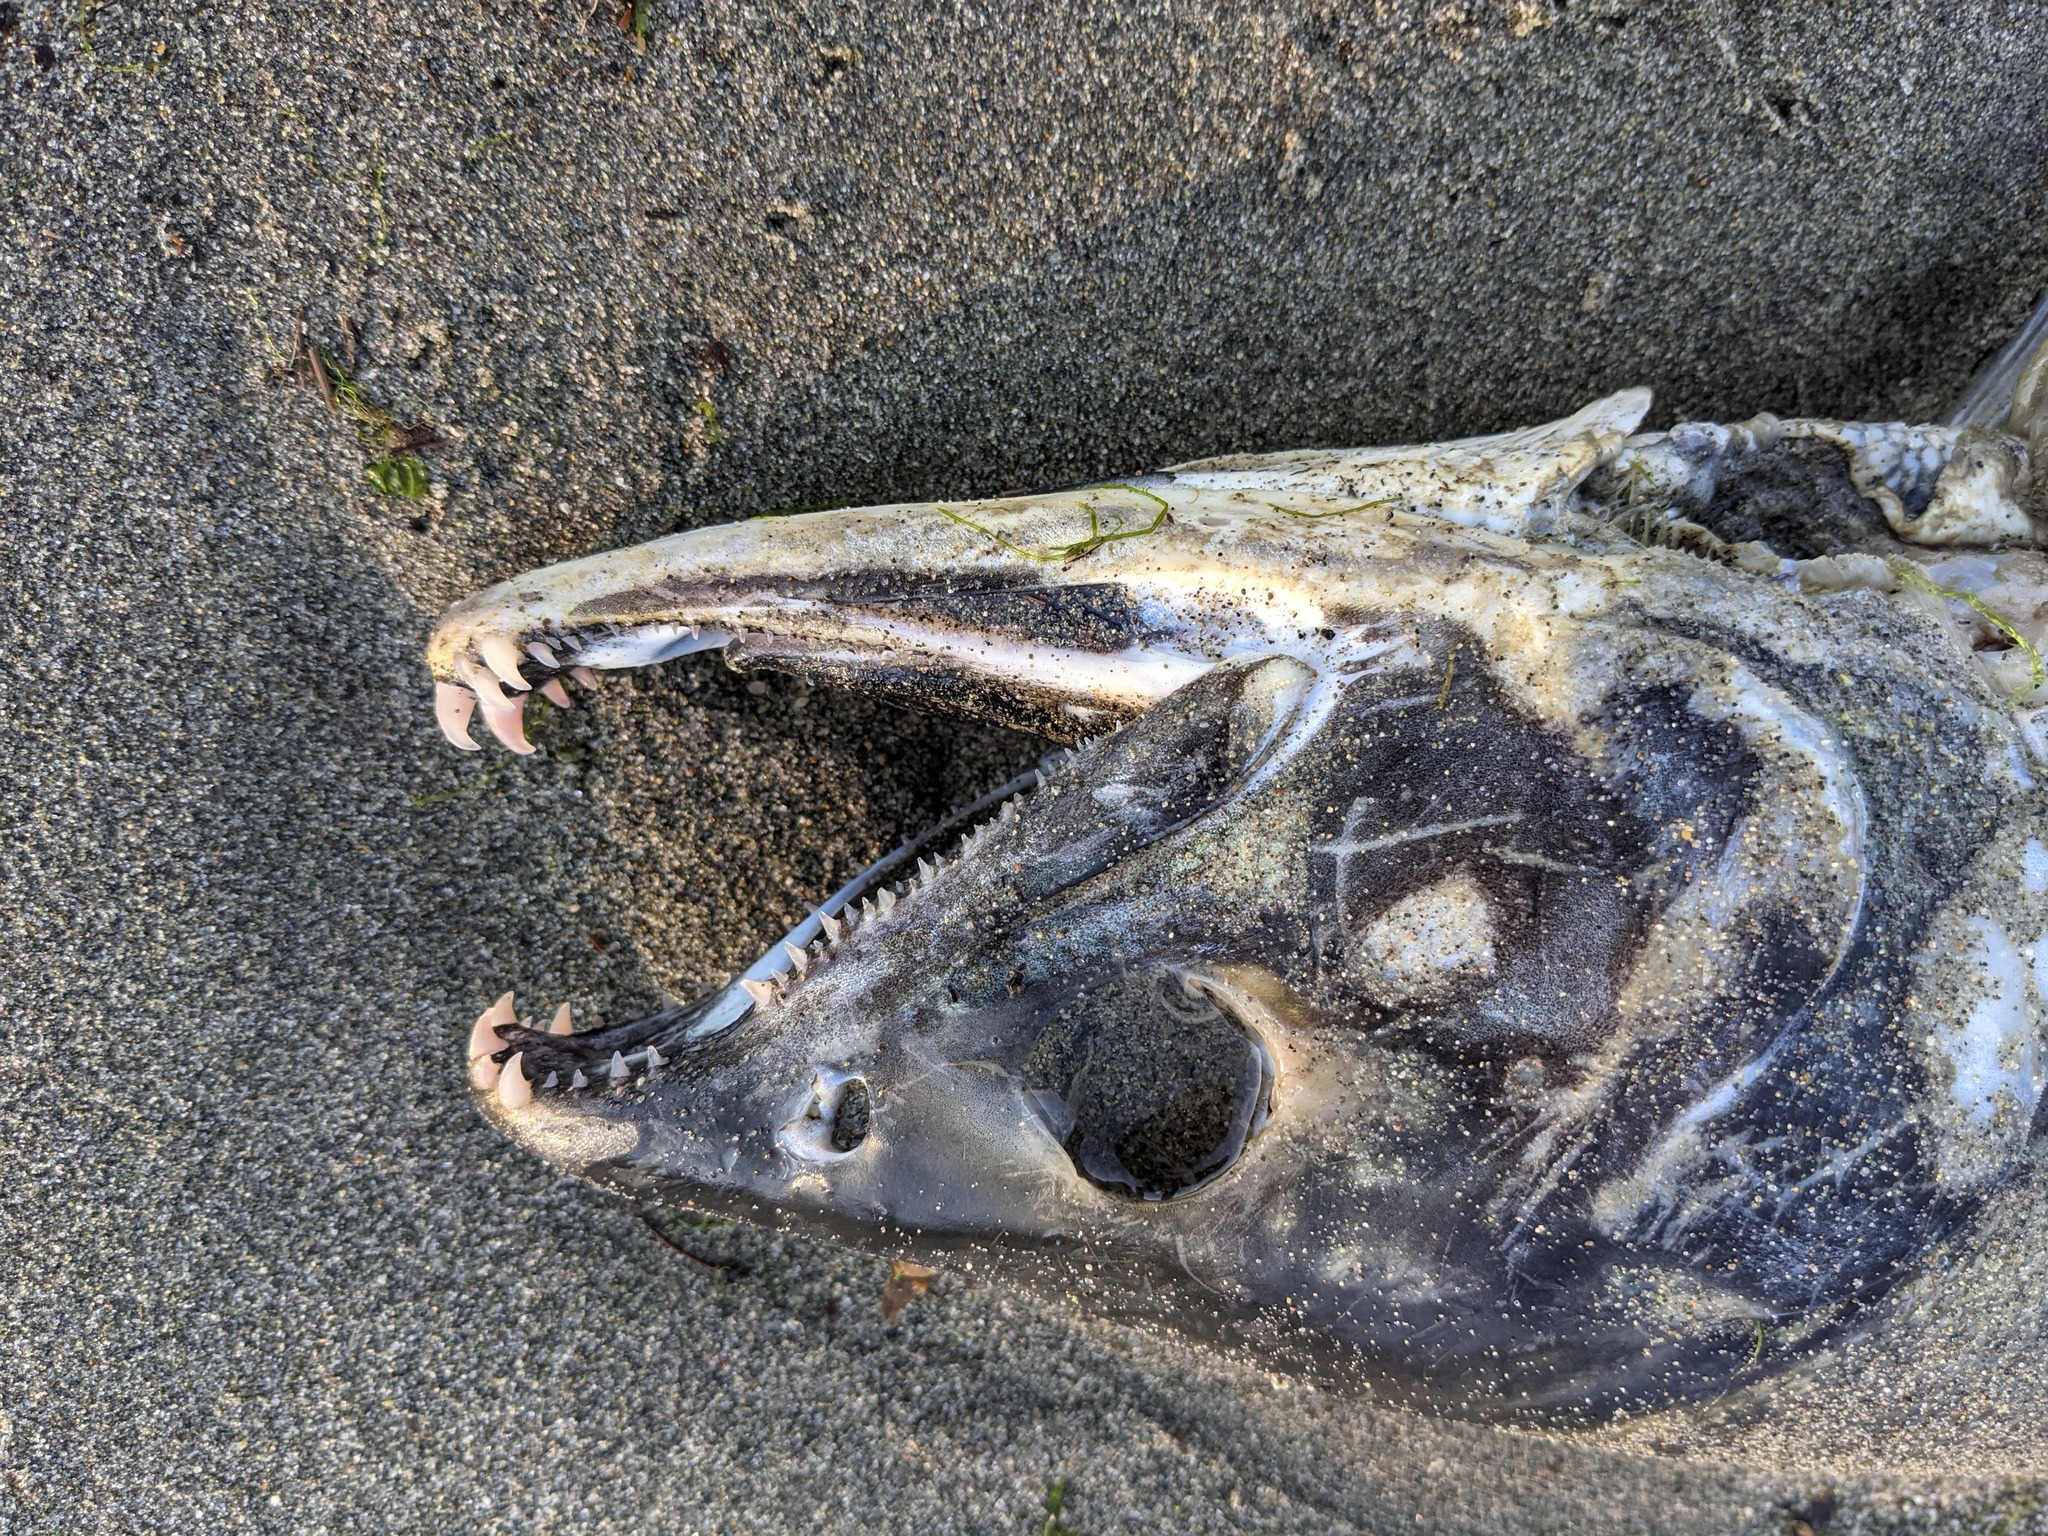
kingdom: Animalia
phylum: Chordata
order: Salmoniformes
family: Salmonidae
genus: Oncorhynchus
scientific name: Oncorhynchus keta
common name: Chum salmon
